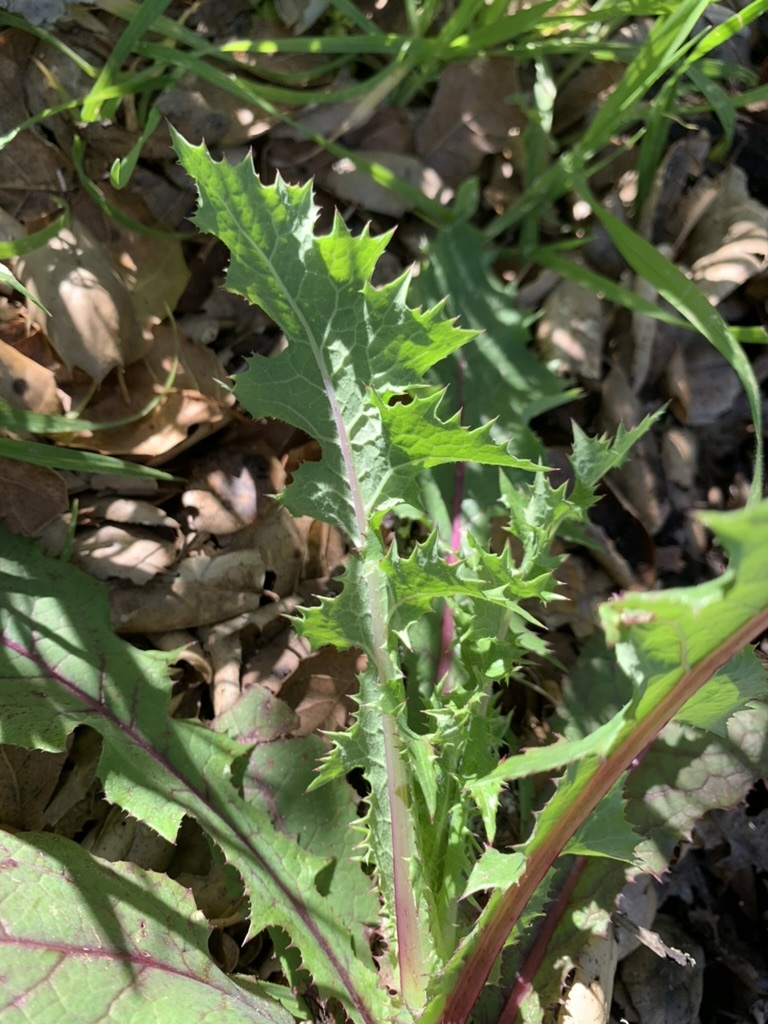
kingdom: Plantae
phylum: Tracheophyta
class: Magnoliopsida
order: Asterales
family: Asteraceae
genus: Sonchus
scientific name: Sonchus asper
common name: Prickly sow-thistle
